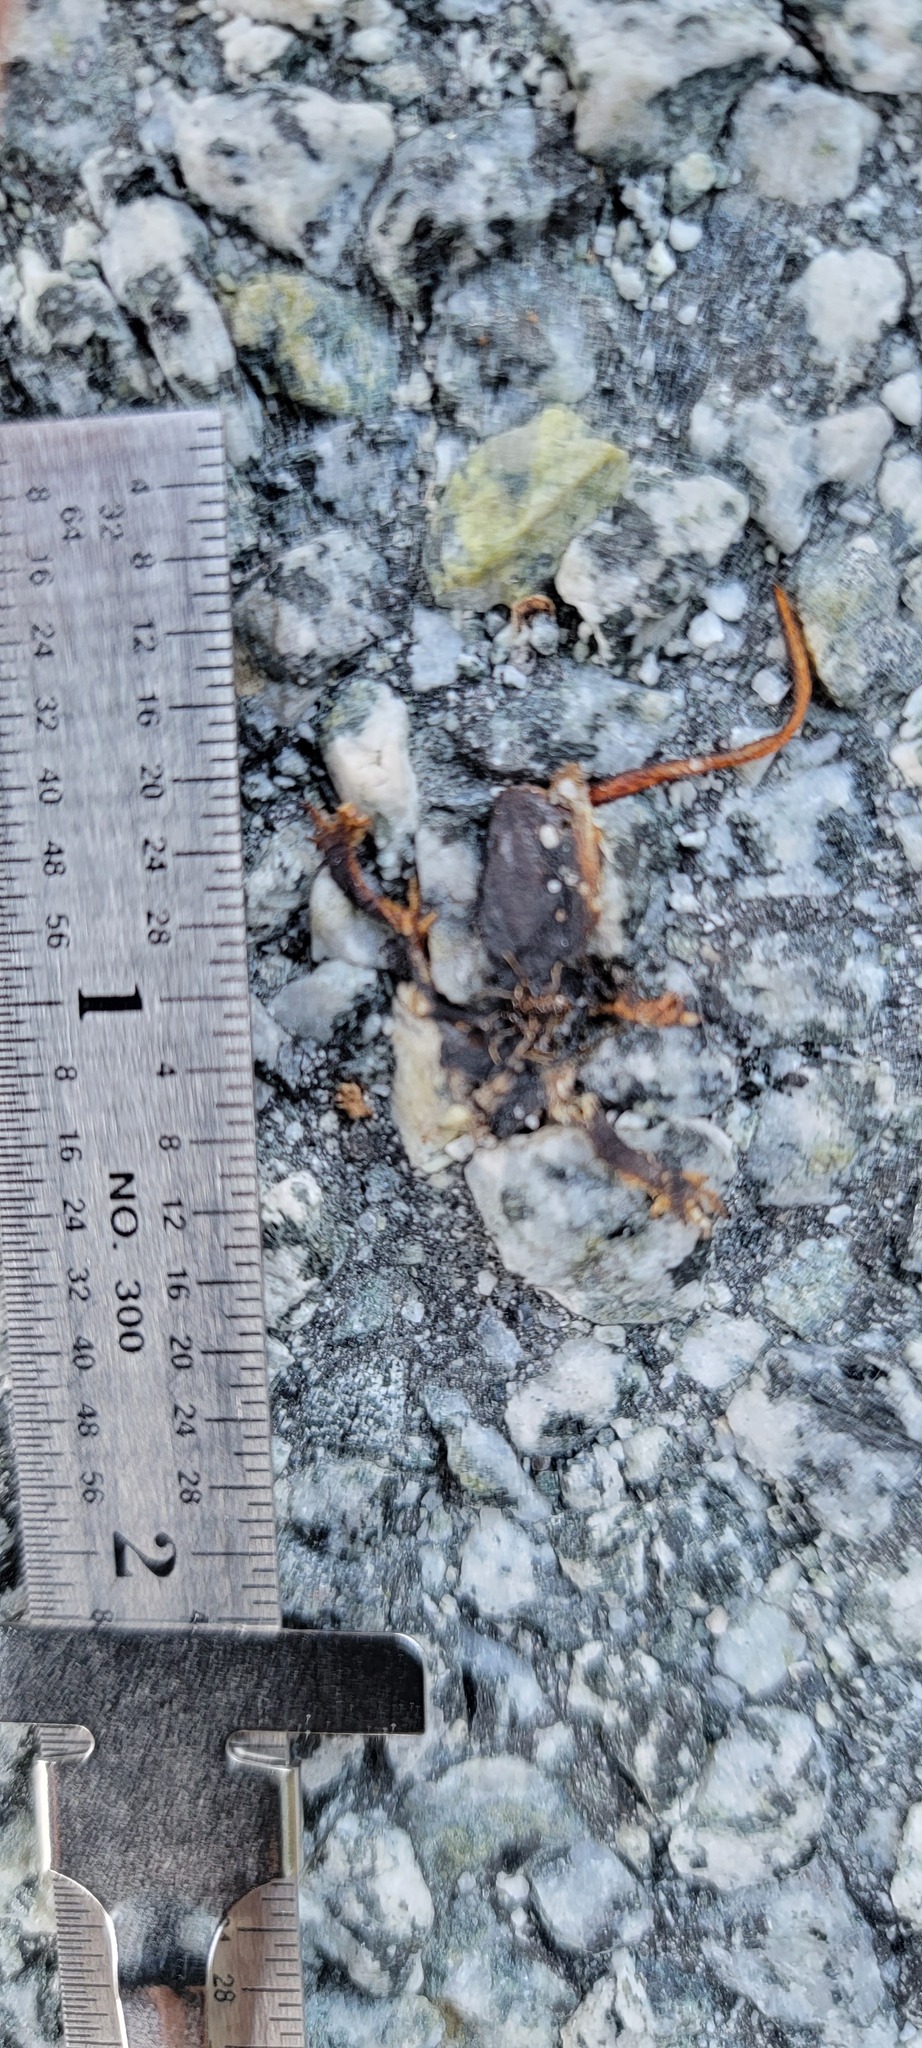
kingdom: Animalia
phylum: Chordata
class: Amphibia
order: Caudata
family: Salamandridae
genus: Taricha
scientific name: Taricha
